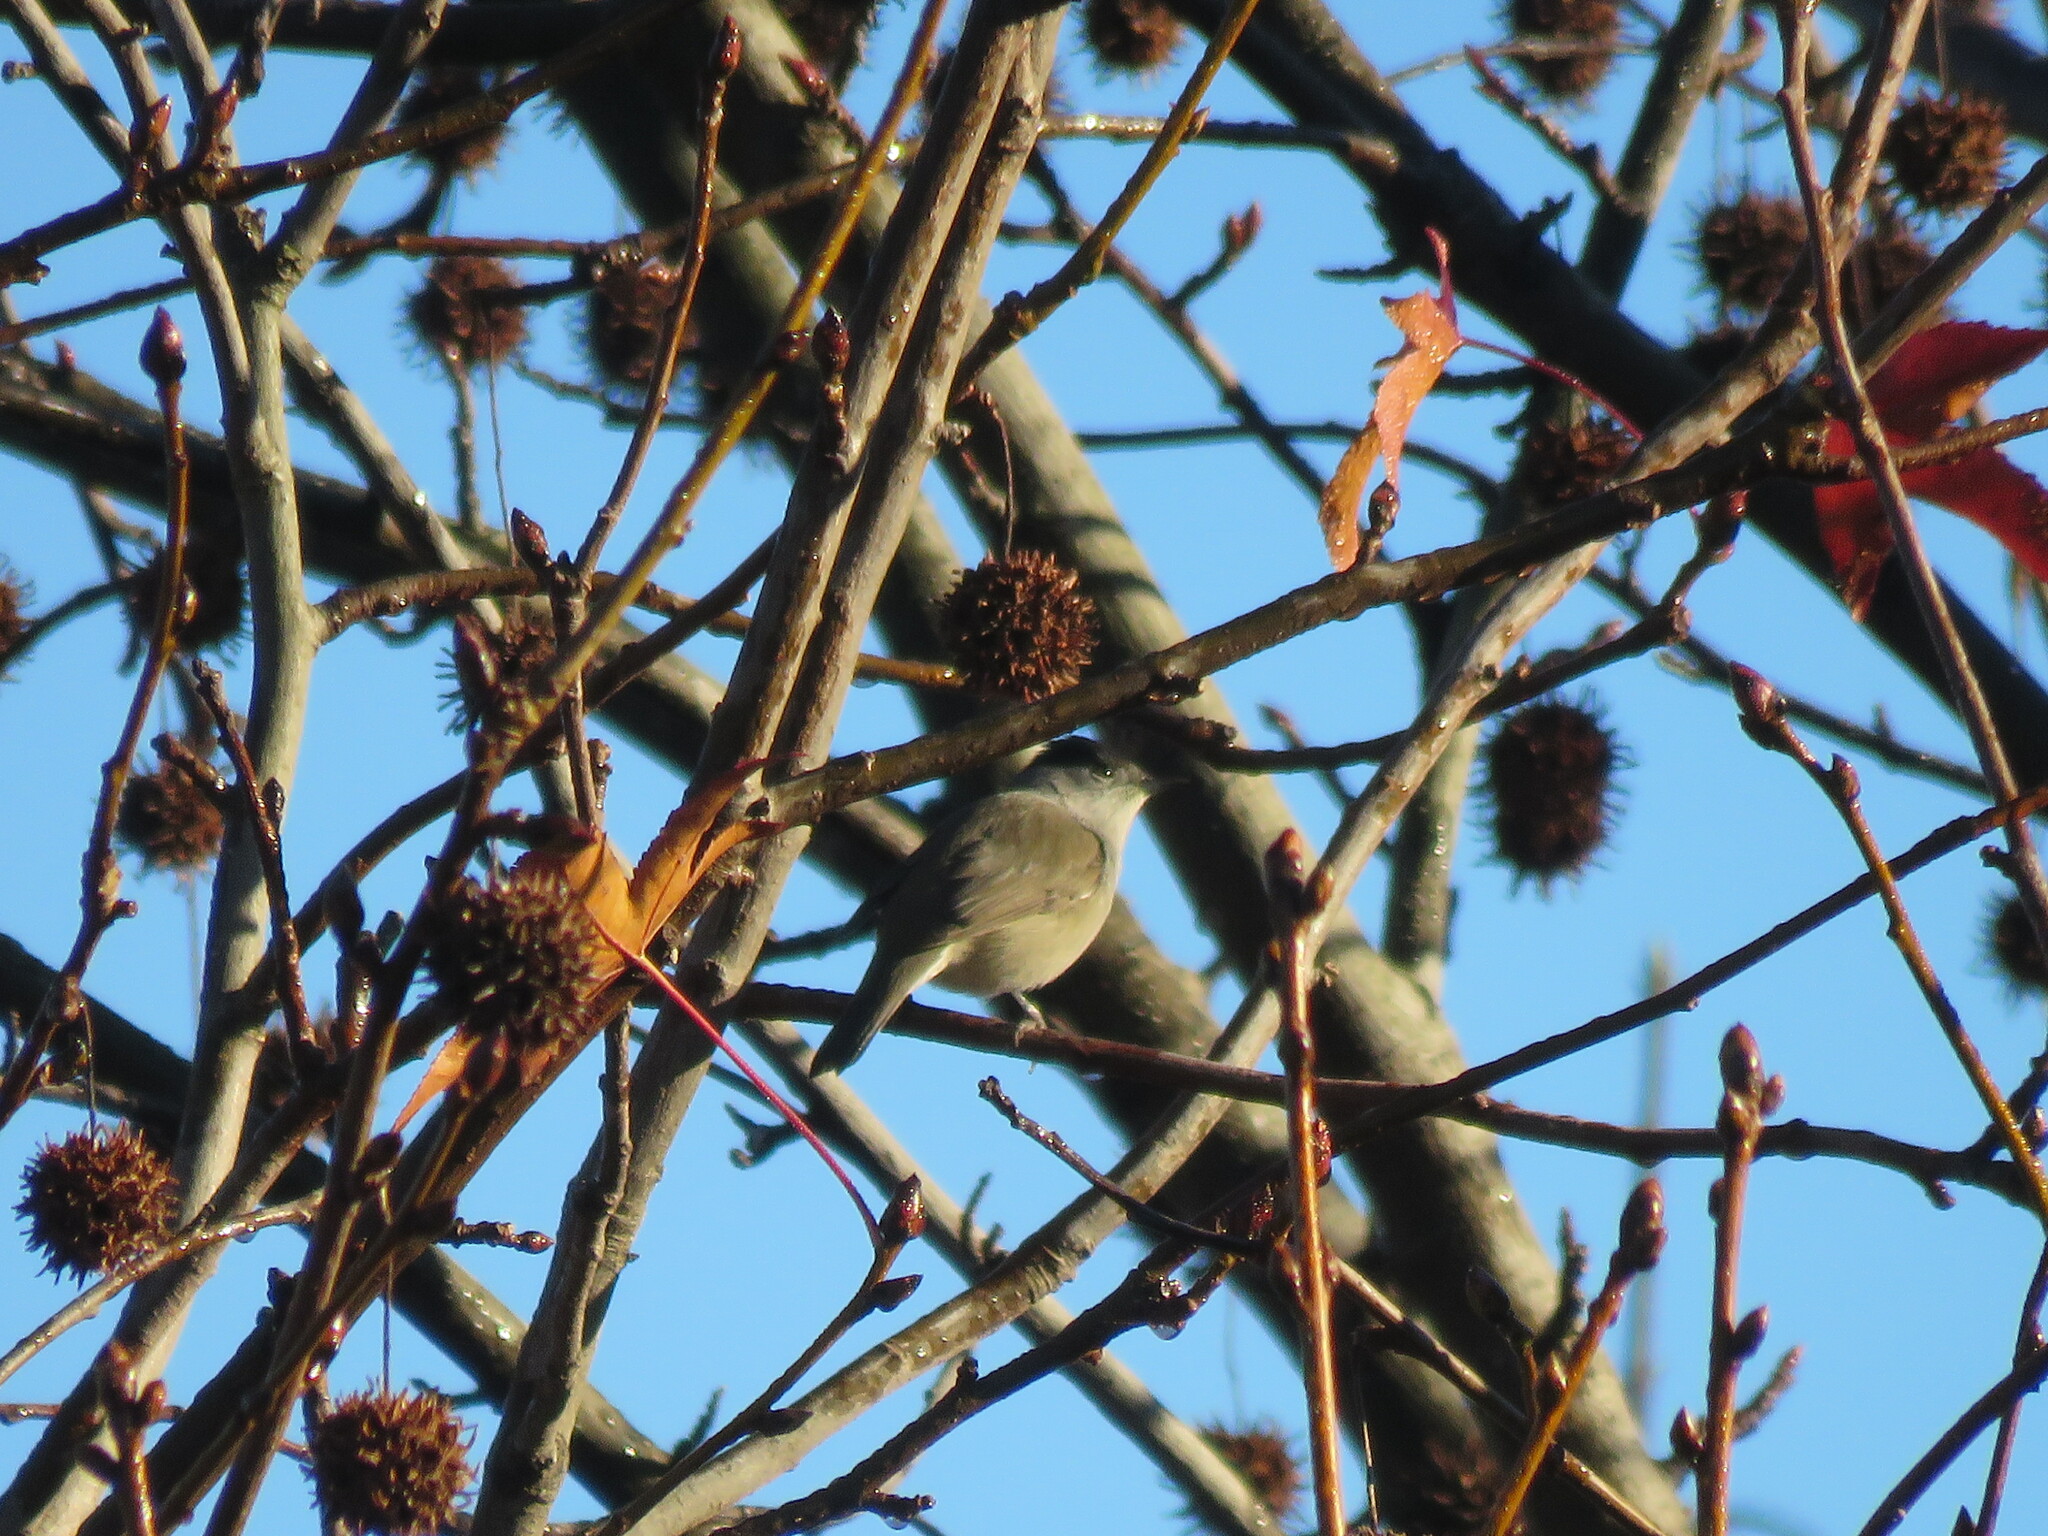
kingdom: Animalia
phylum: Chordata
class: Aves
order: Passeriformes
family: Sylviidae
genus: Sylvia
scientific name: Sylvia atricapilla
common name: Eurasian blackcap
